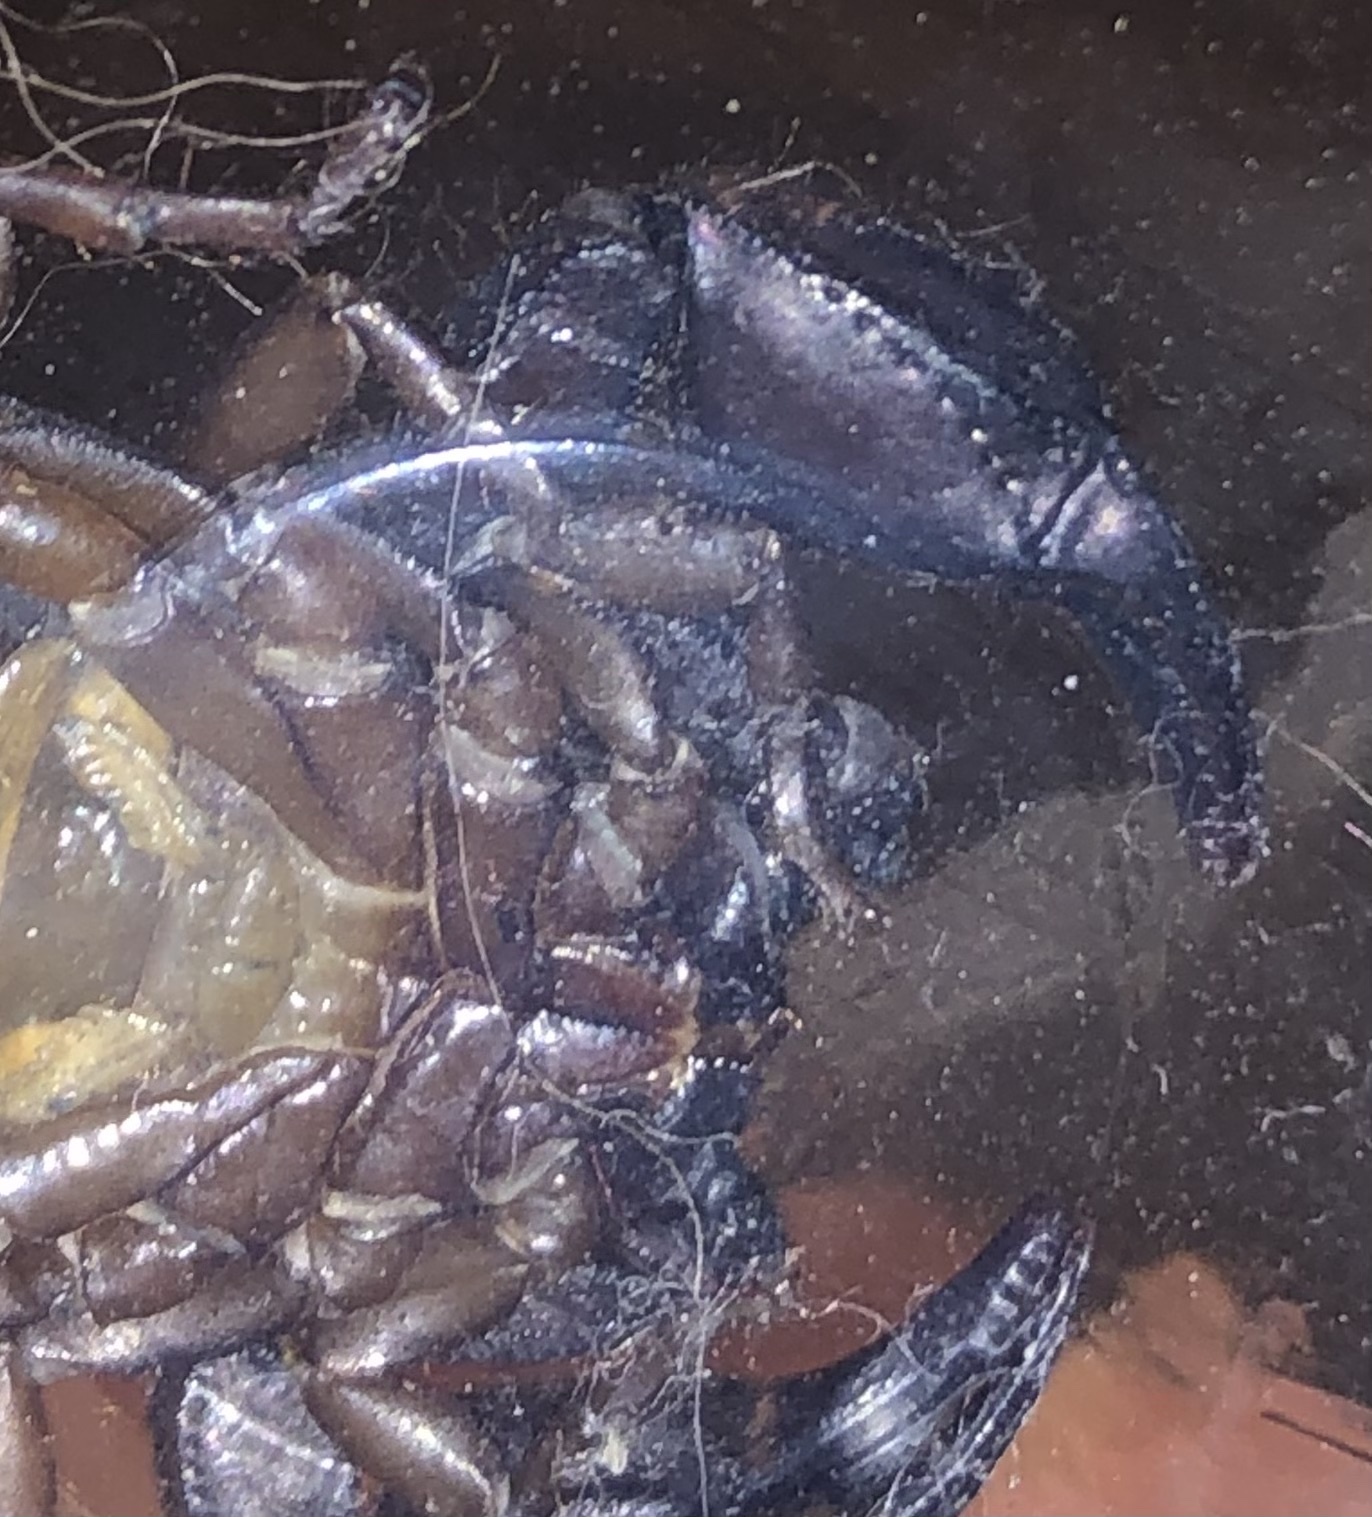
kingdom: Animalia
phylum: Arthropoda
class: Arachnida
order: Scorpiones
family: Euscorpiidae
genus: Euscorpius
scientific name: Euscorpius italicus
